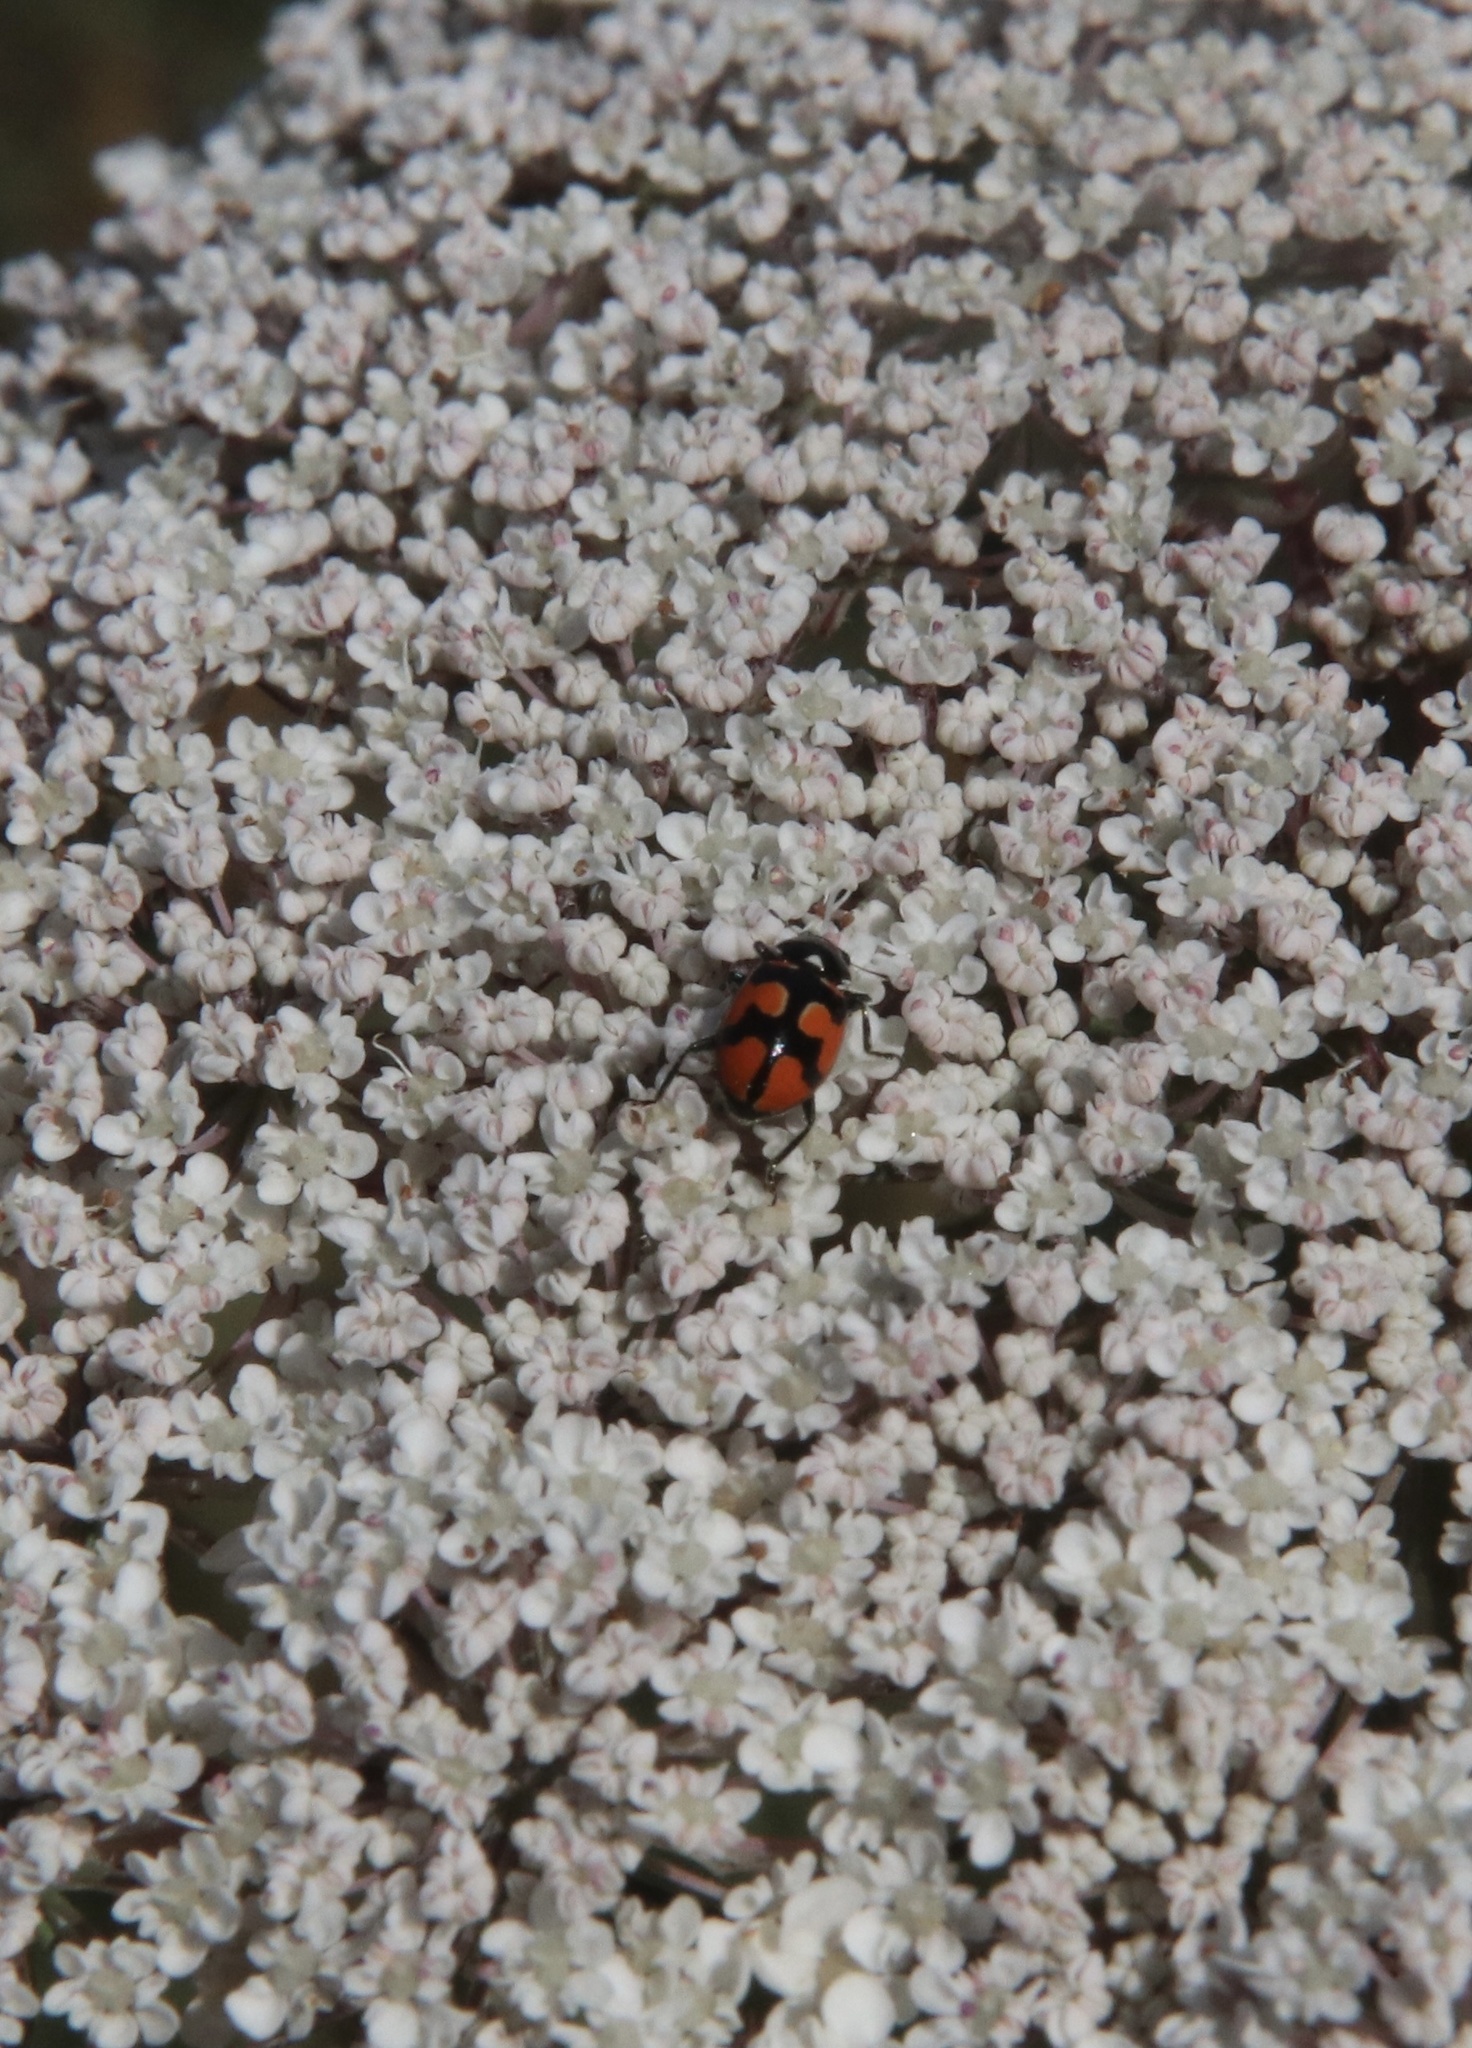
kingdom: Animalia
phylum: Arthropoda
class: Insecta
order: Coleoptera
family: Coccinellidae
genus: Eriopis
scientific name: Eriopis eschscholtzii
